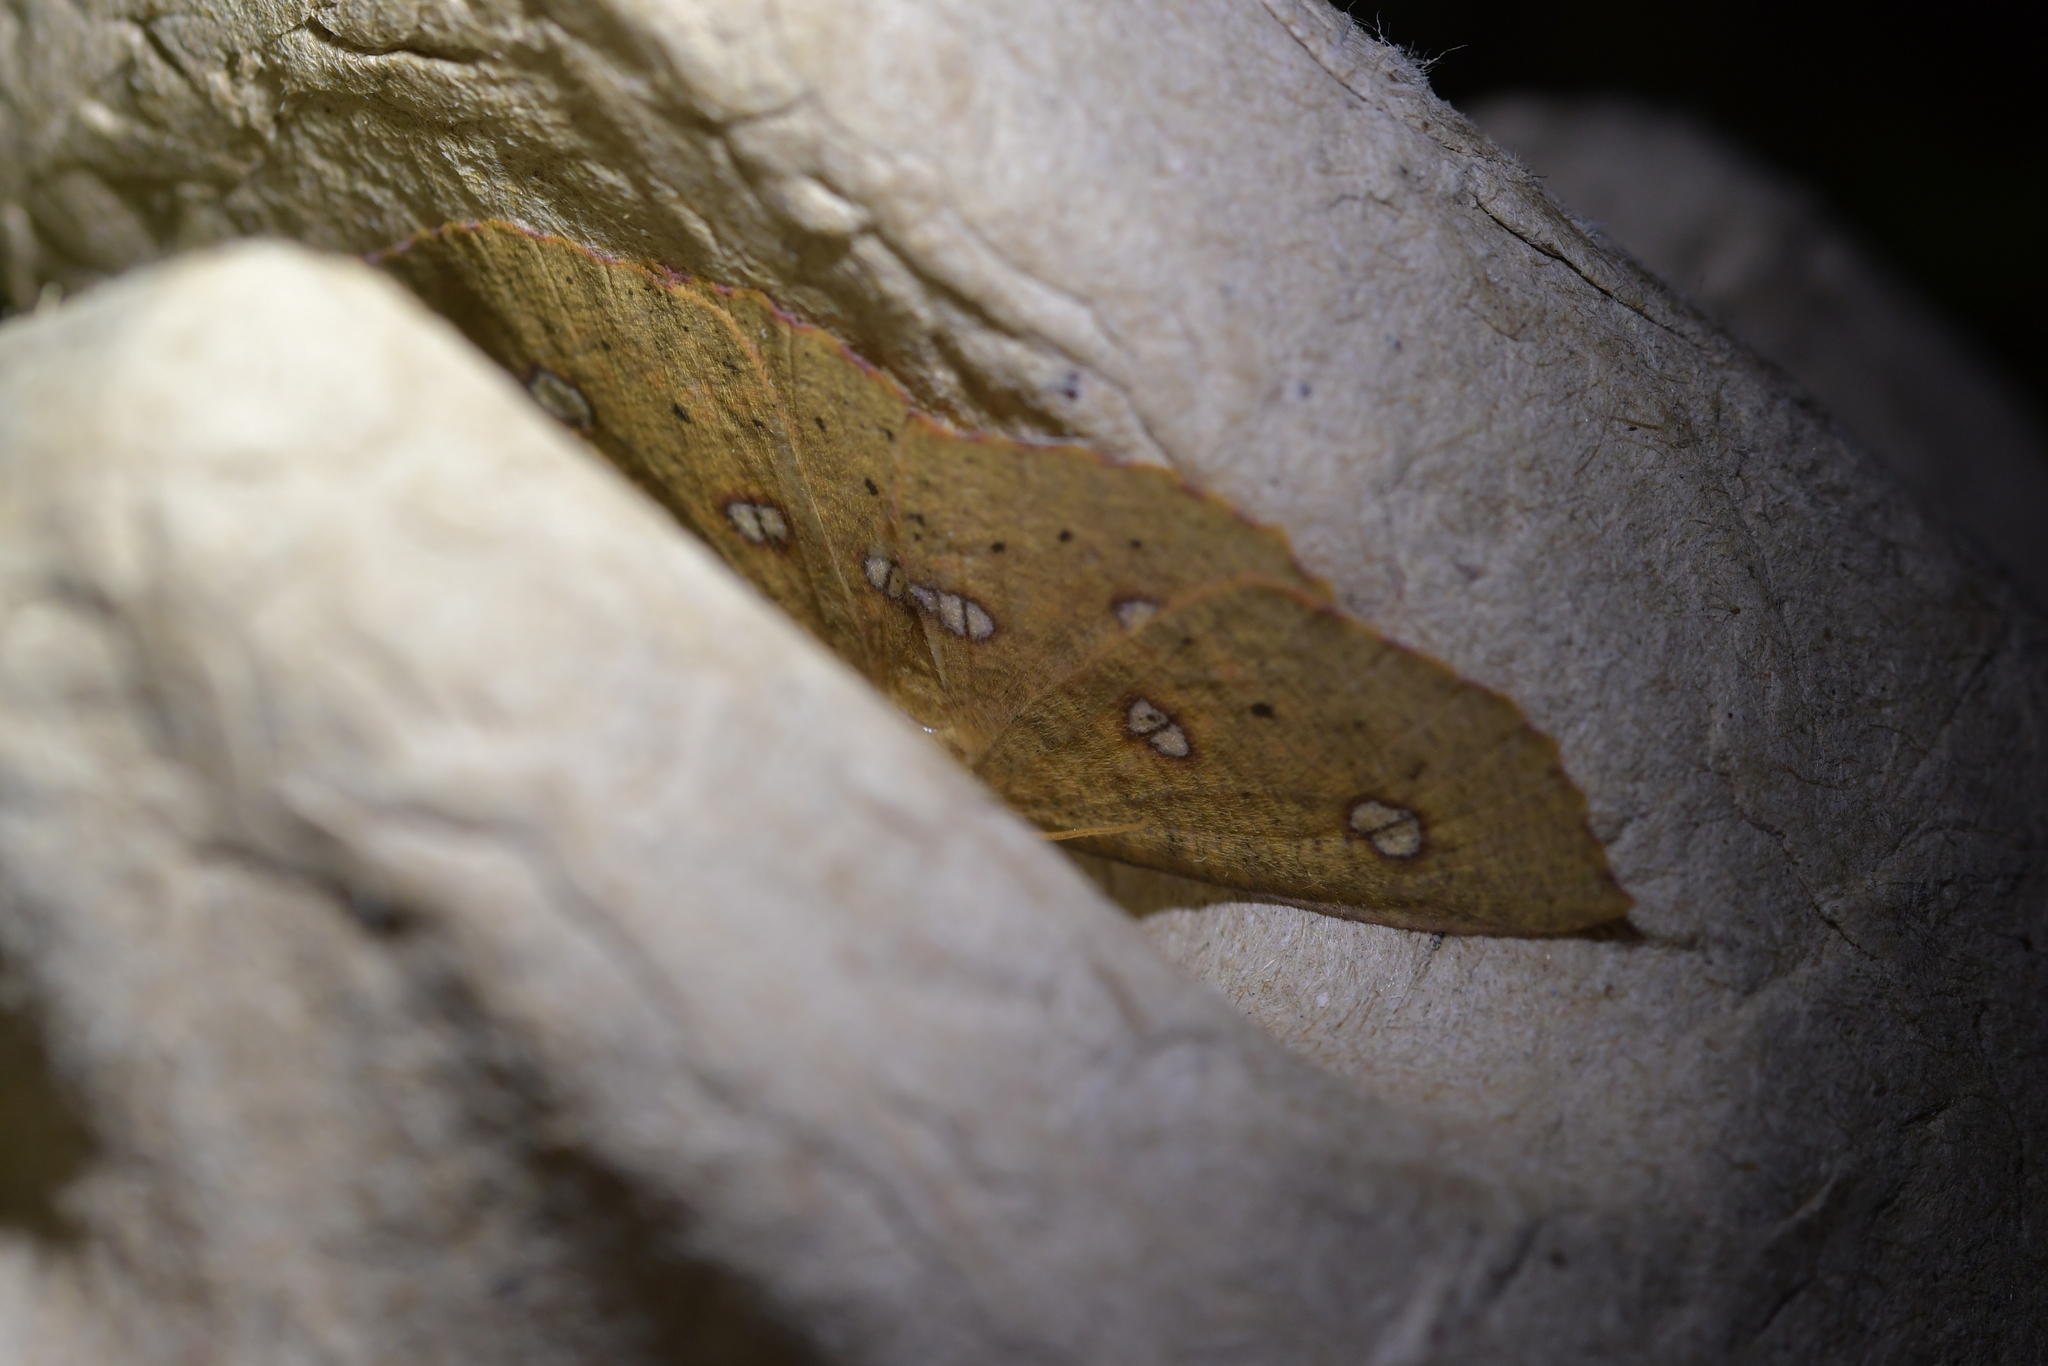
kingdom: Animalia
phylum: Arthropoda
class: Insecta
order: Lepidoptera
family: Geometridae
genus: Xyridacma
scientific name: Xyridacma alectoraria
